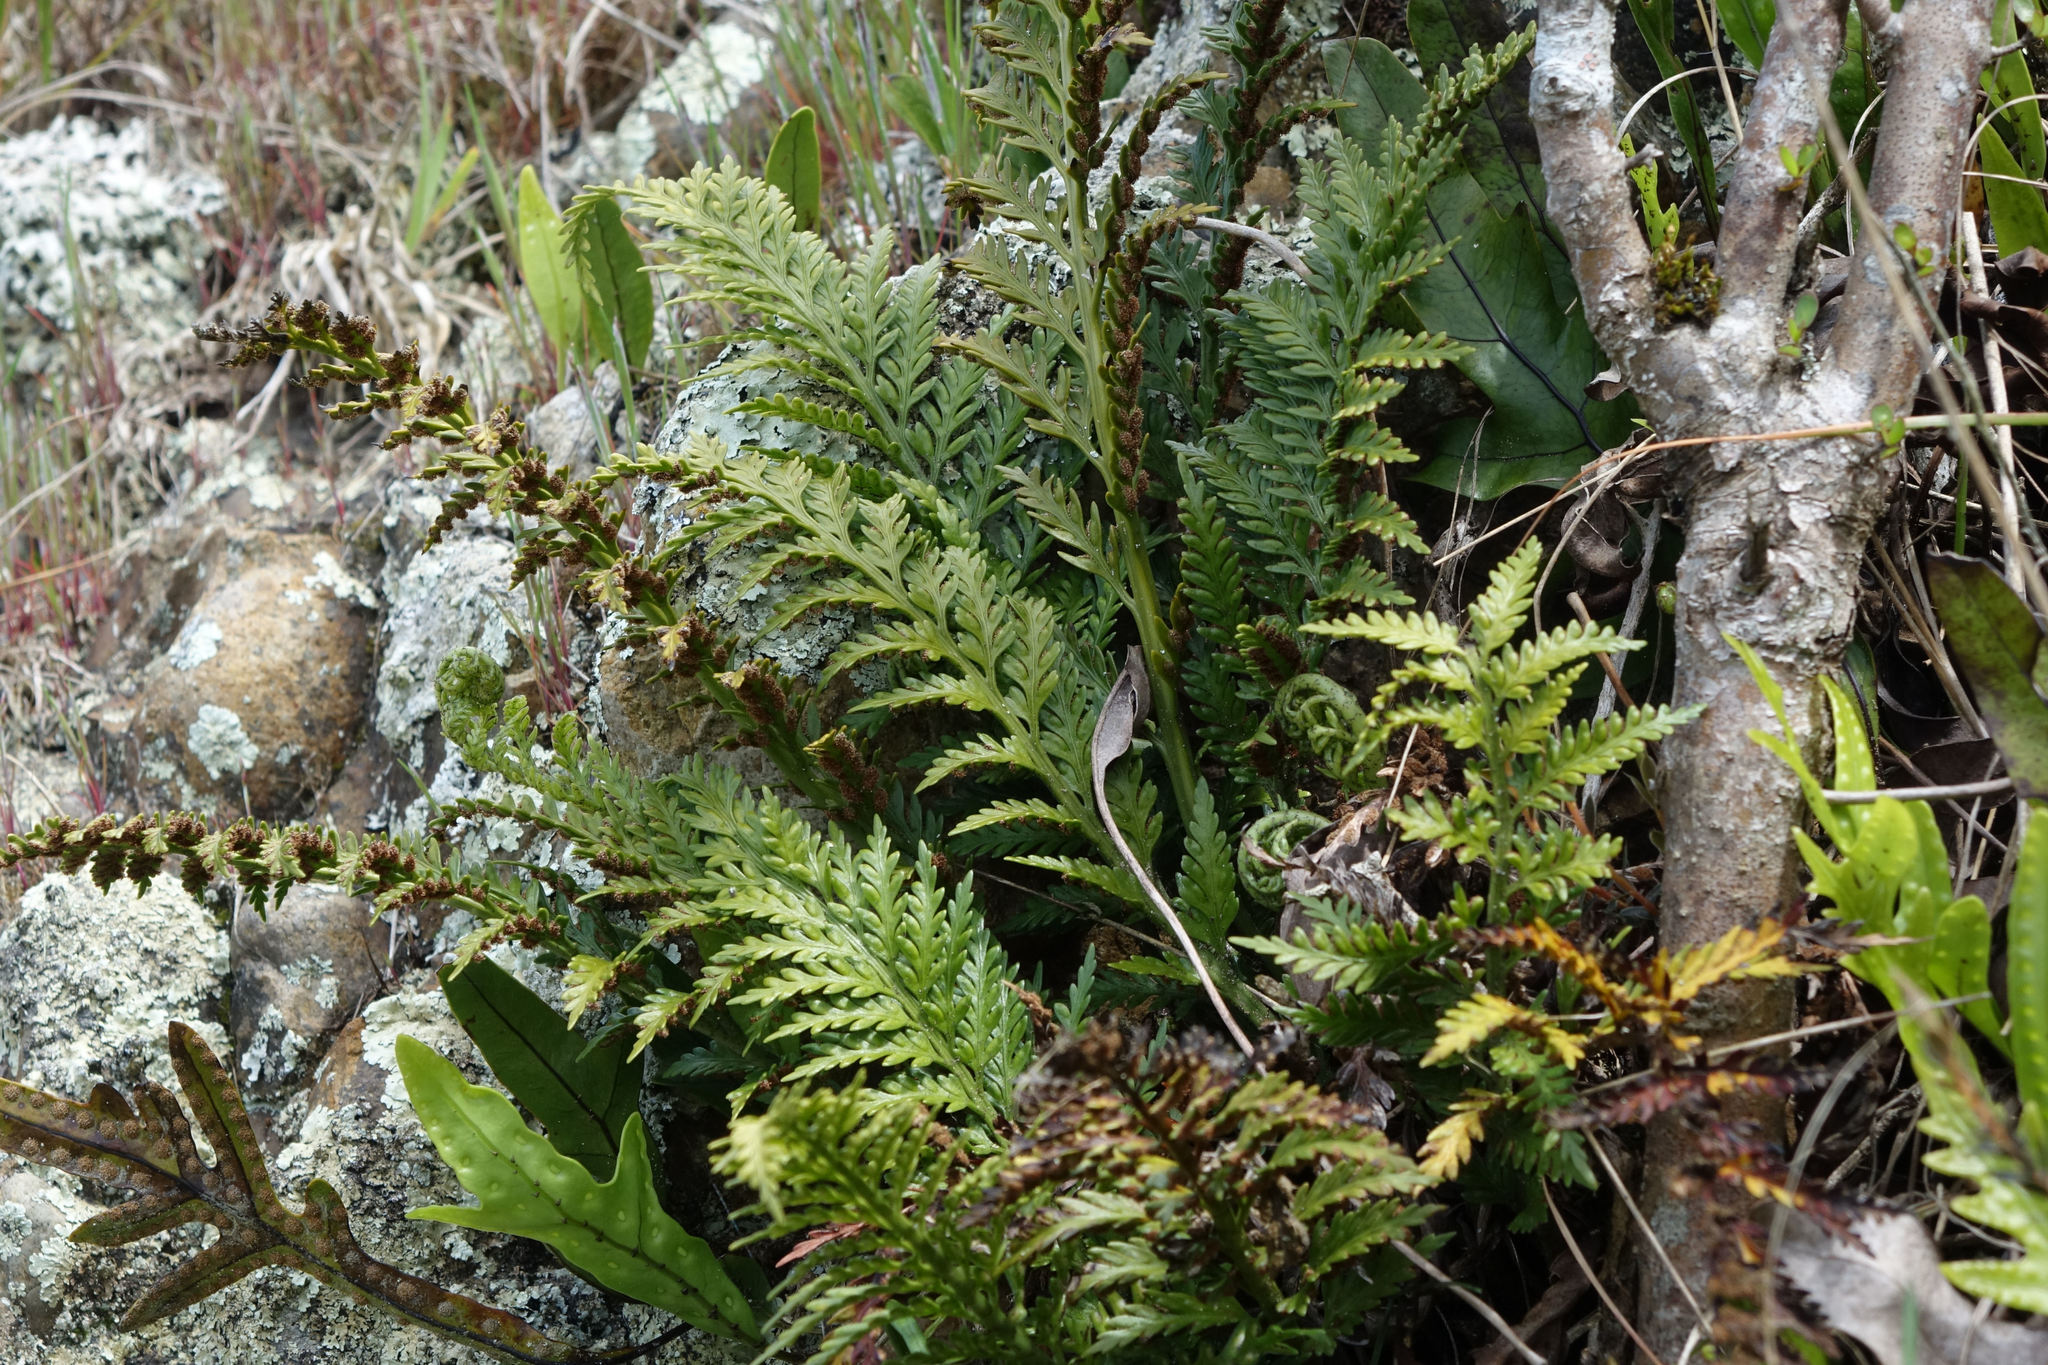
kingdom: Plantae
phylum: Tracheophyta
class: Polypodiopsida
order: Polypodiales
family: Aspleniaceae
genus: Asplenium
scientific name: Asplenium appendiculatum
